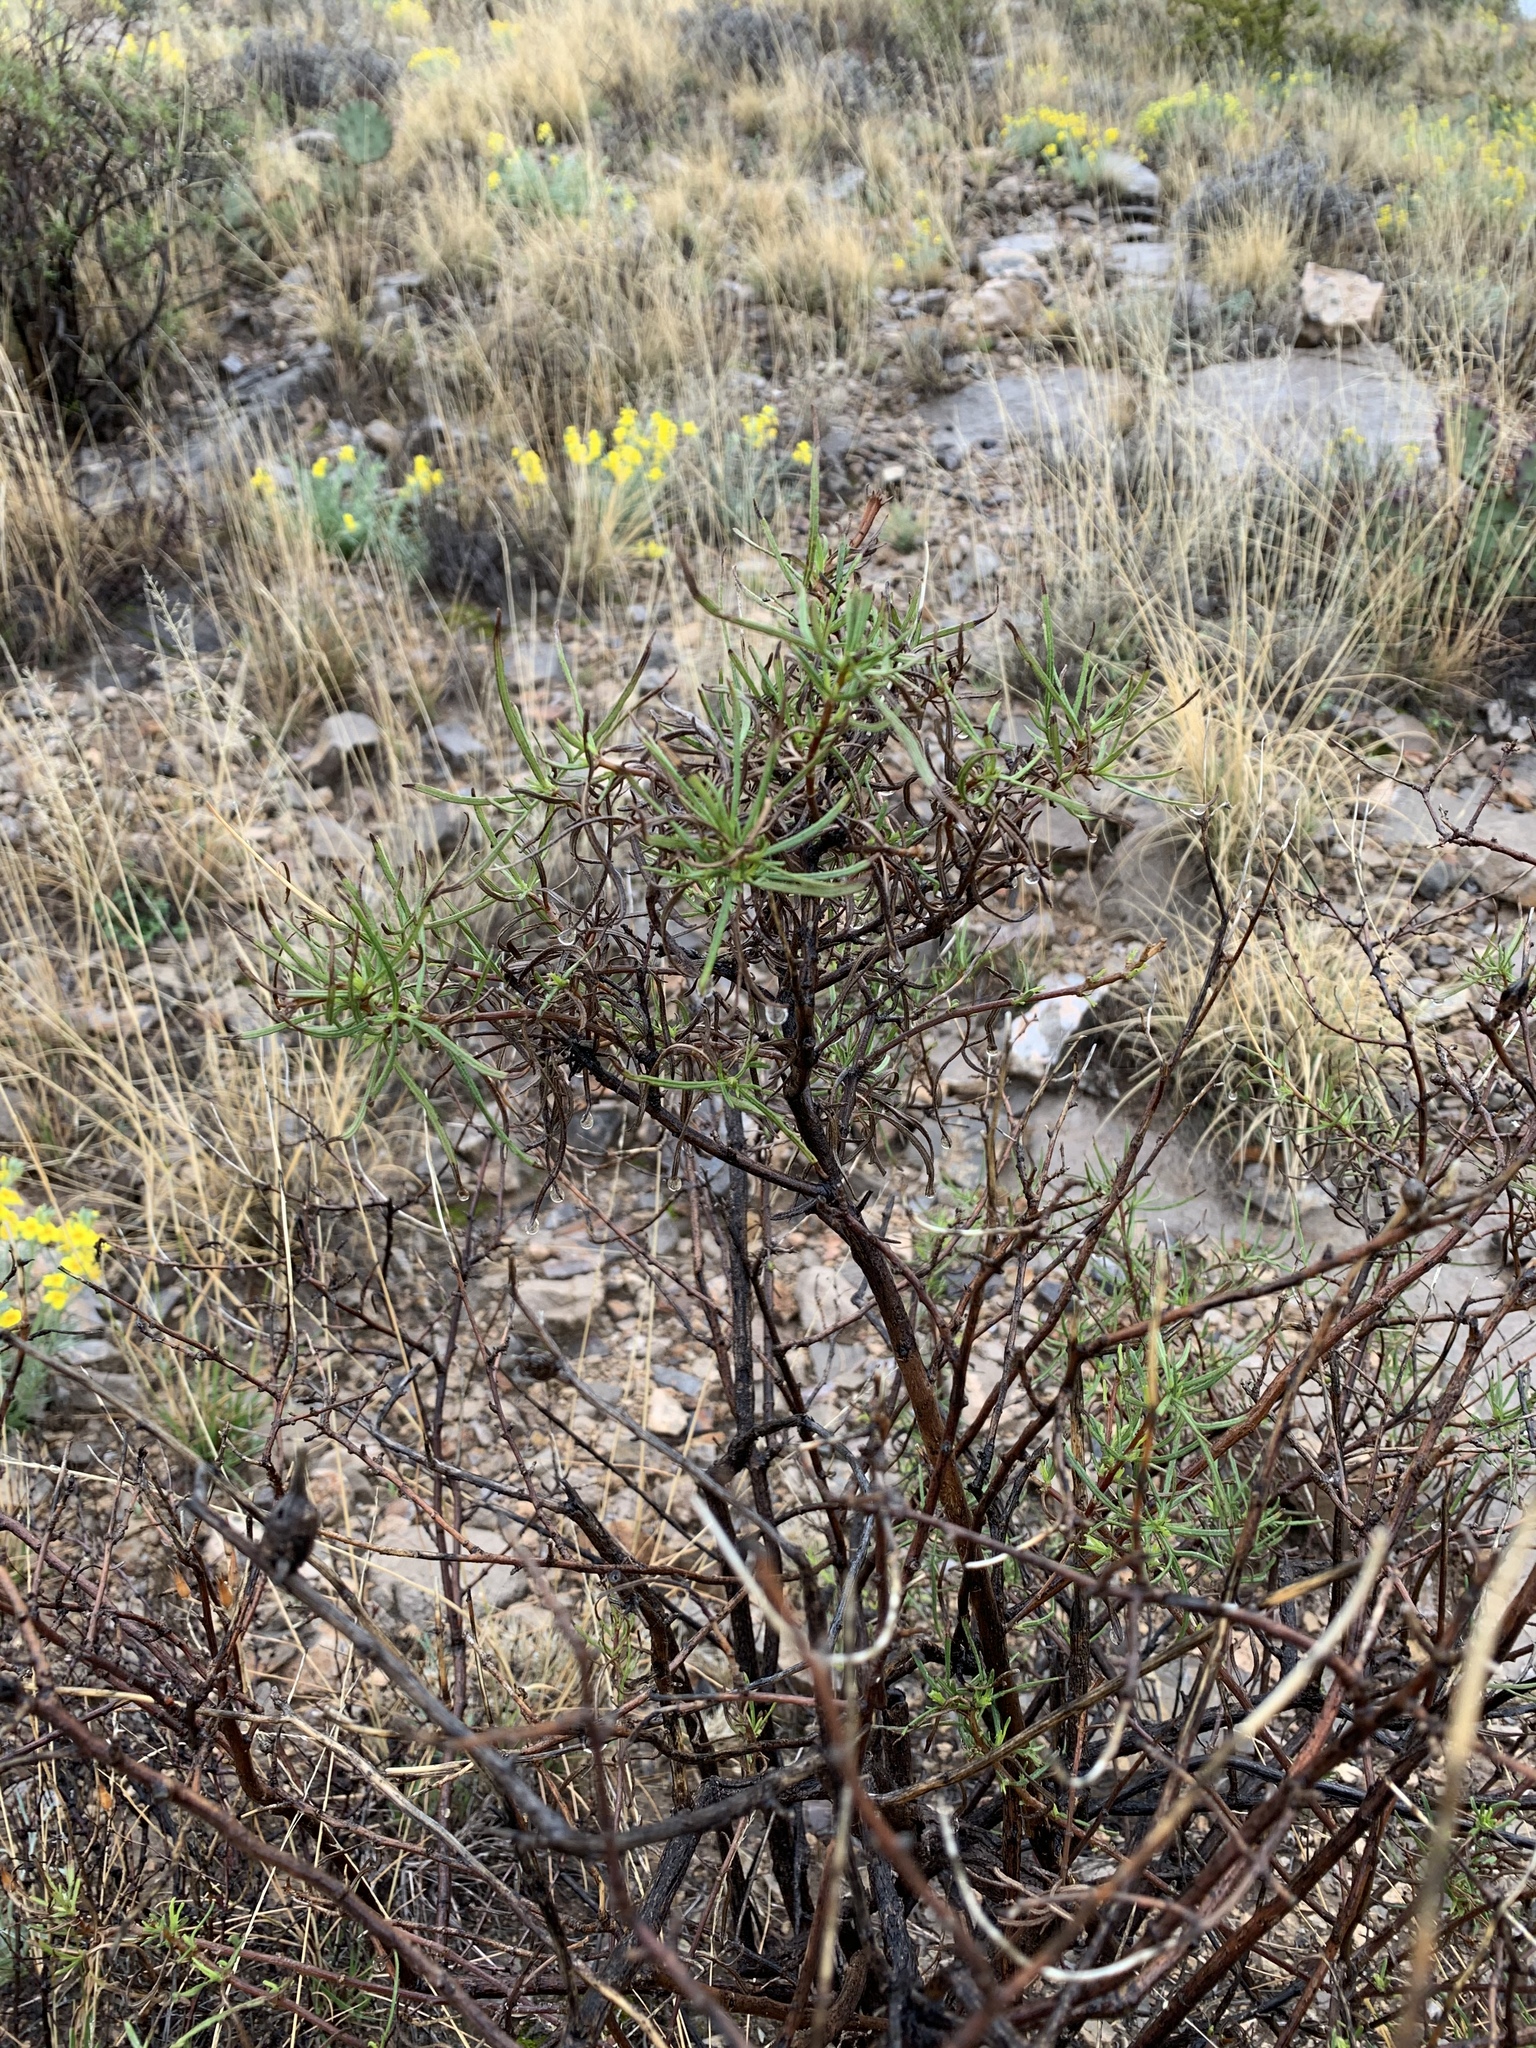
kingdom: Plantae
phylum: Tracheophyta
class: Magnoliopsida
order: Asterales
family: Asteraceae
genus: Sidneya
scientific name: Sidneya tenuifolia
